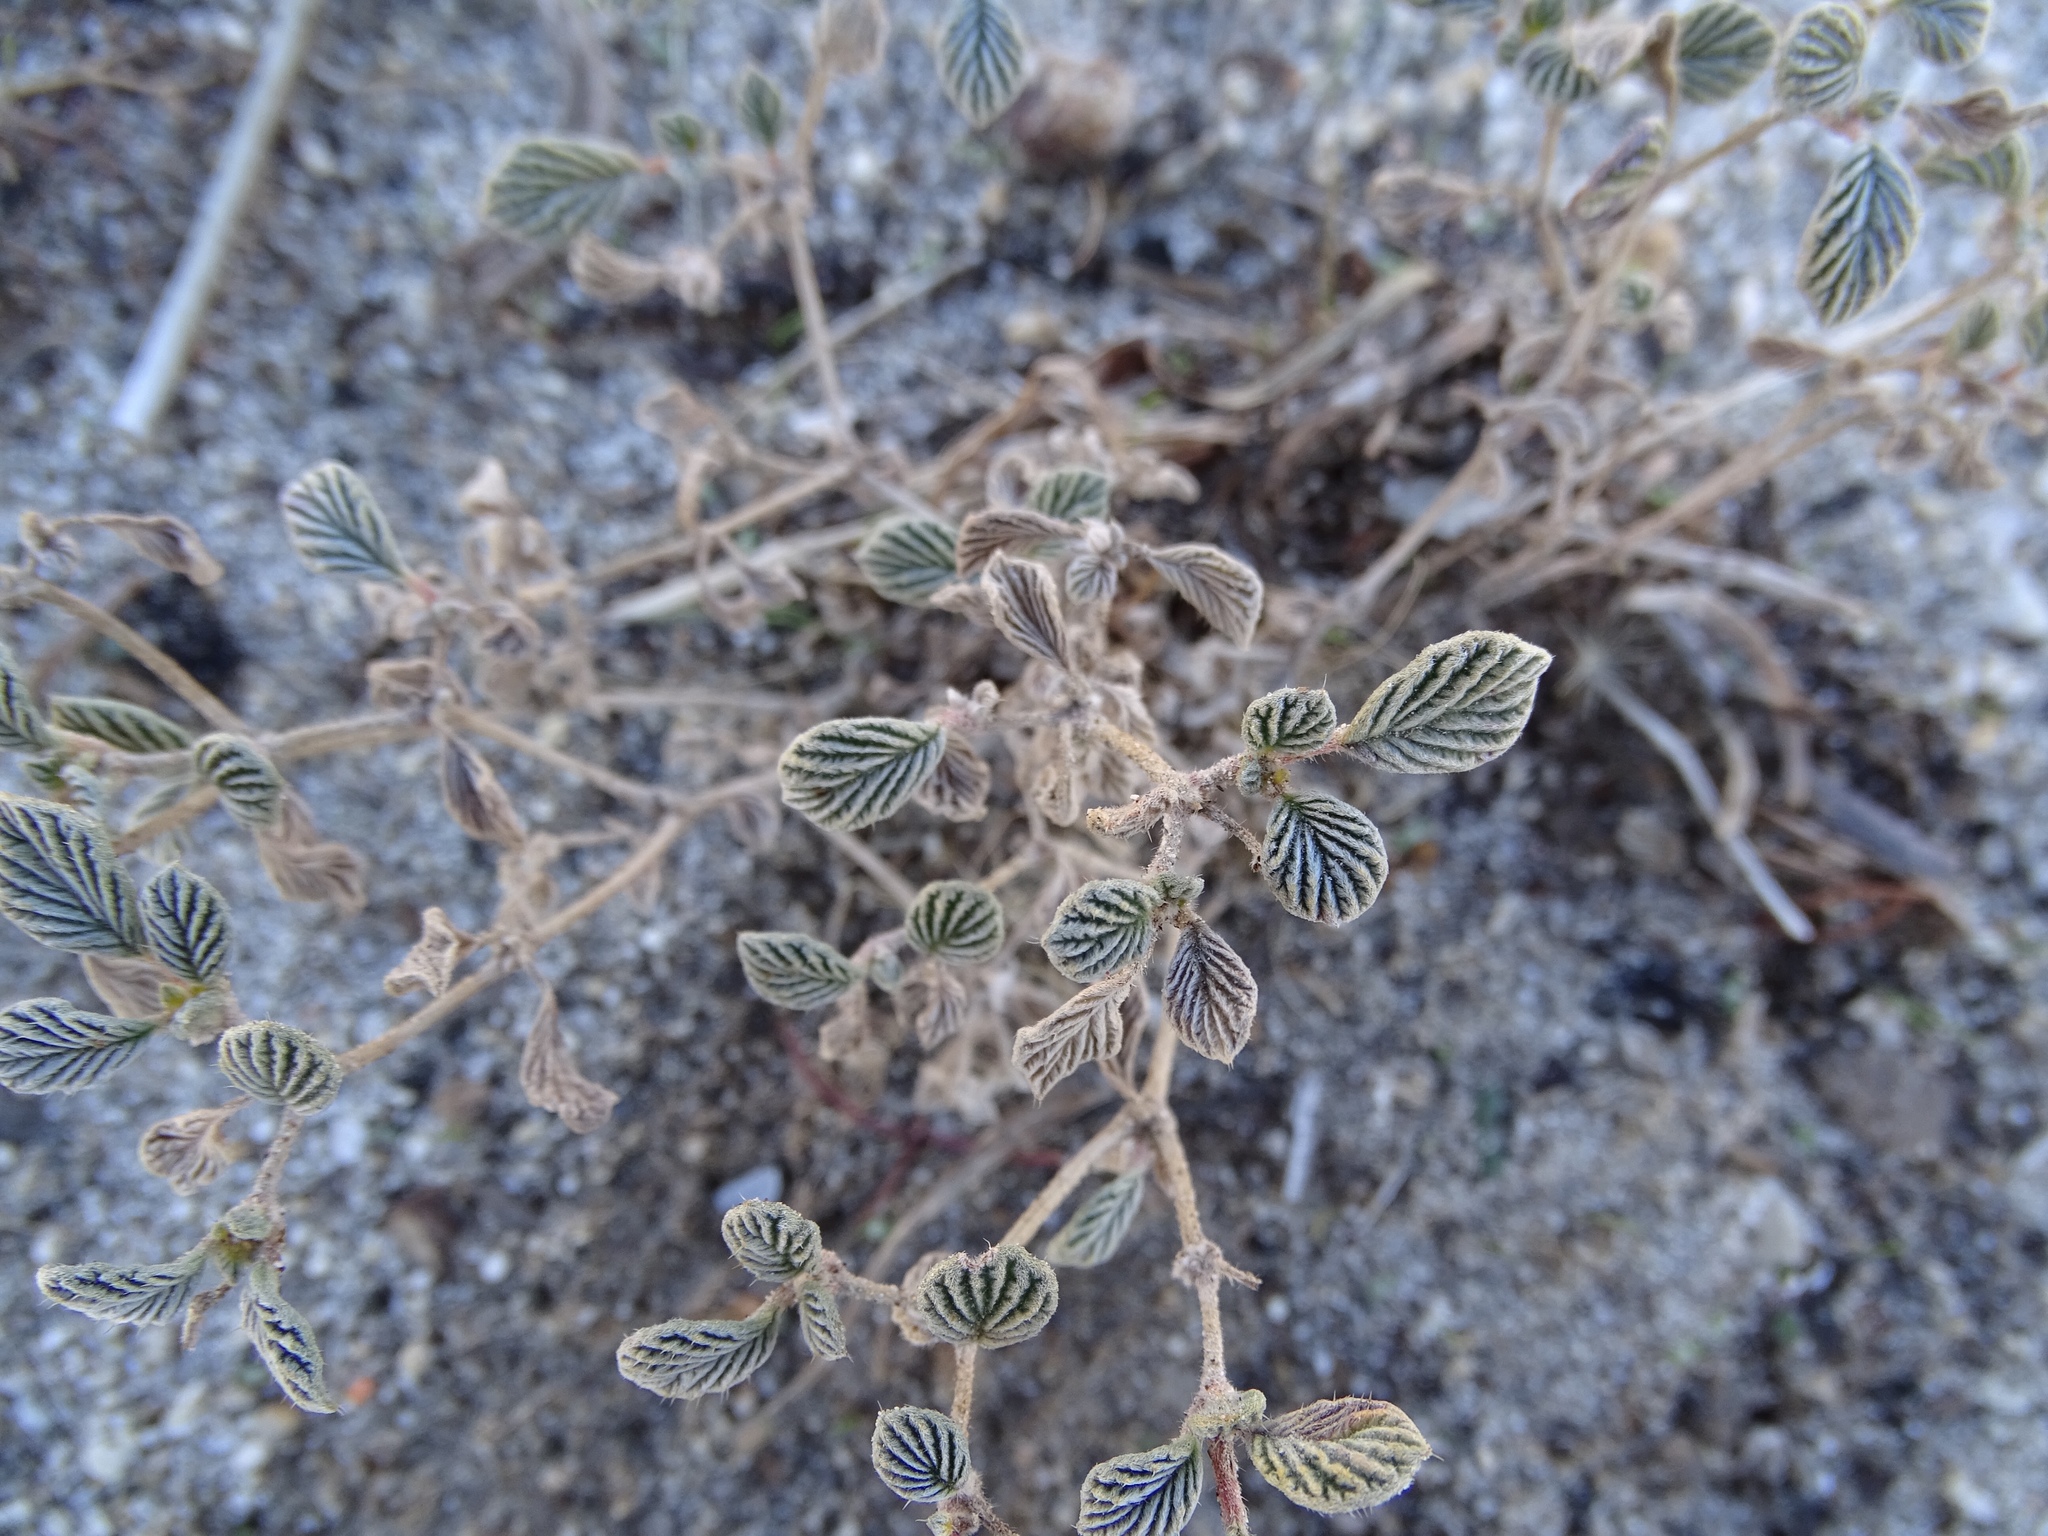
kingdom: Plantae
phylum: Tracheophyta
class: Magnoliopsida
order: Boraginales
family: Ehretiaceae
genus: Tiquilia
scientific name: Tiquilia plicata
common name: Fan-leaf tiquilia
